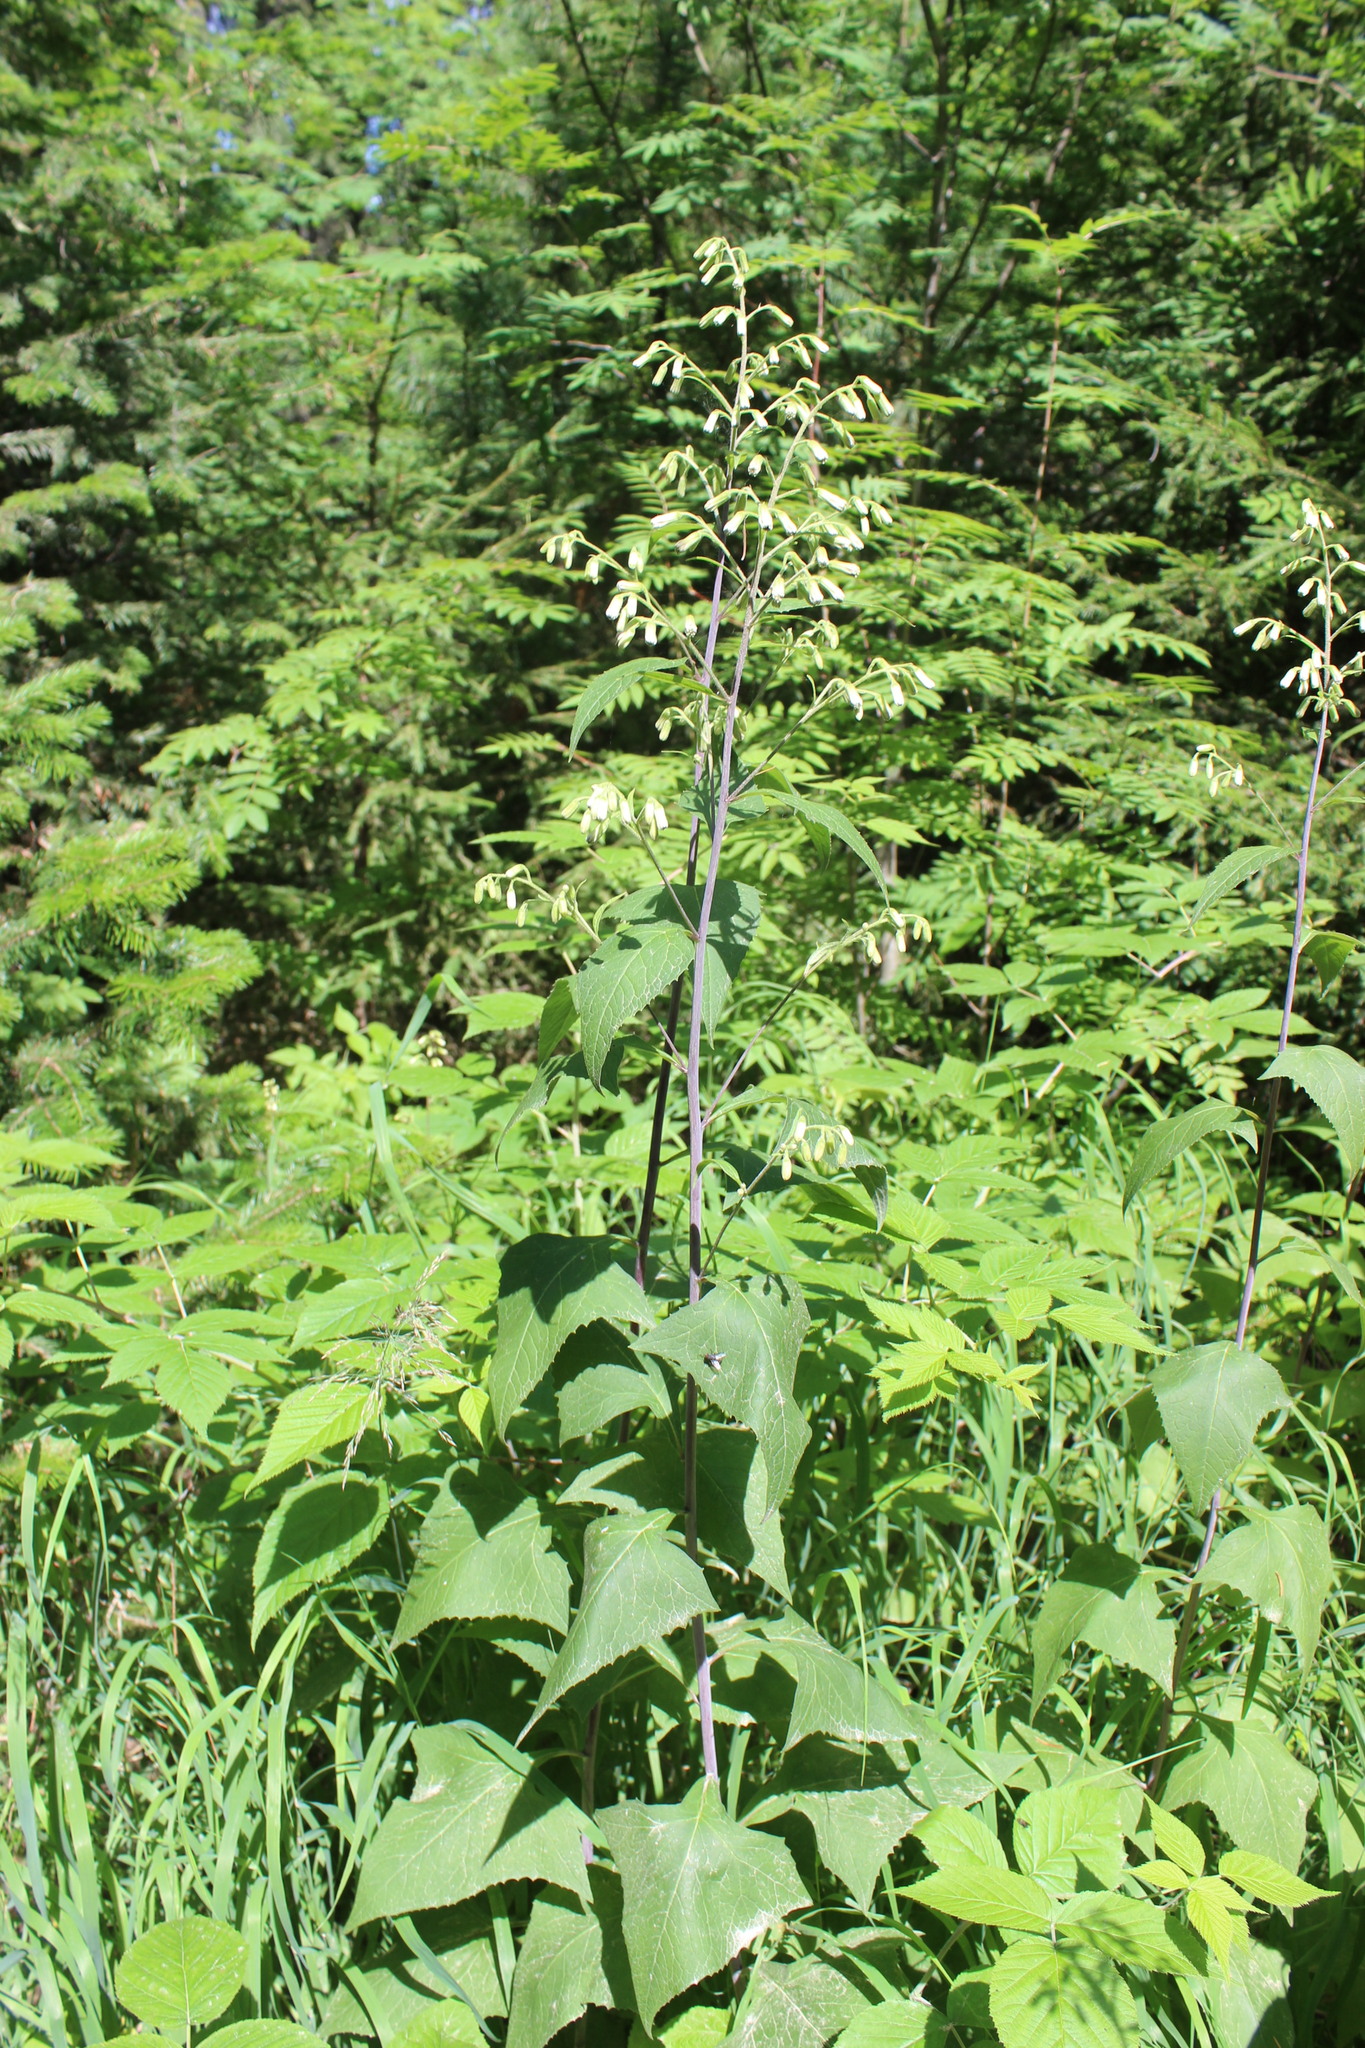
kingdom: Plantae
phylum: Tracheophyta
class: Magnoliopsida
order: Asterales
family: Asteraceae
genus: Parasenecio
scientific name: Parasenecio hastatus
